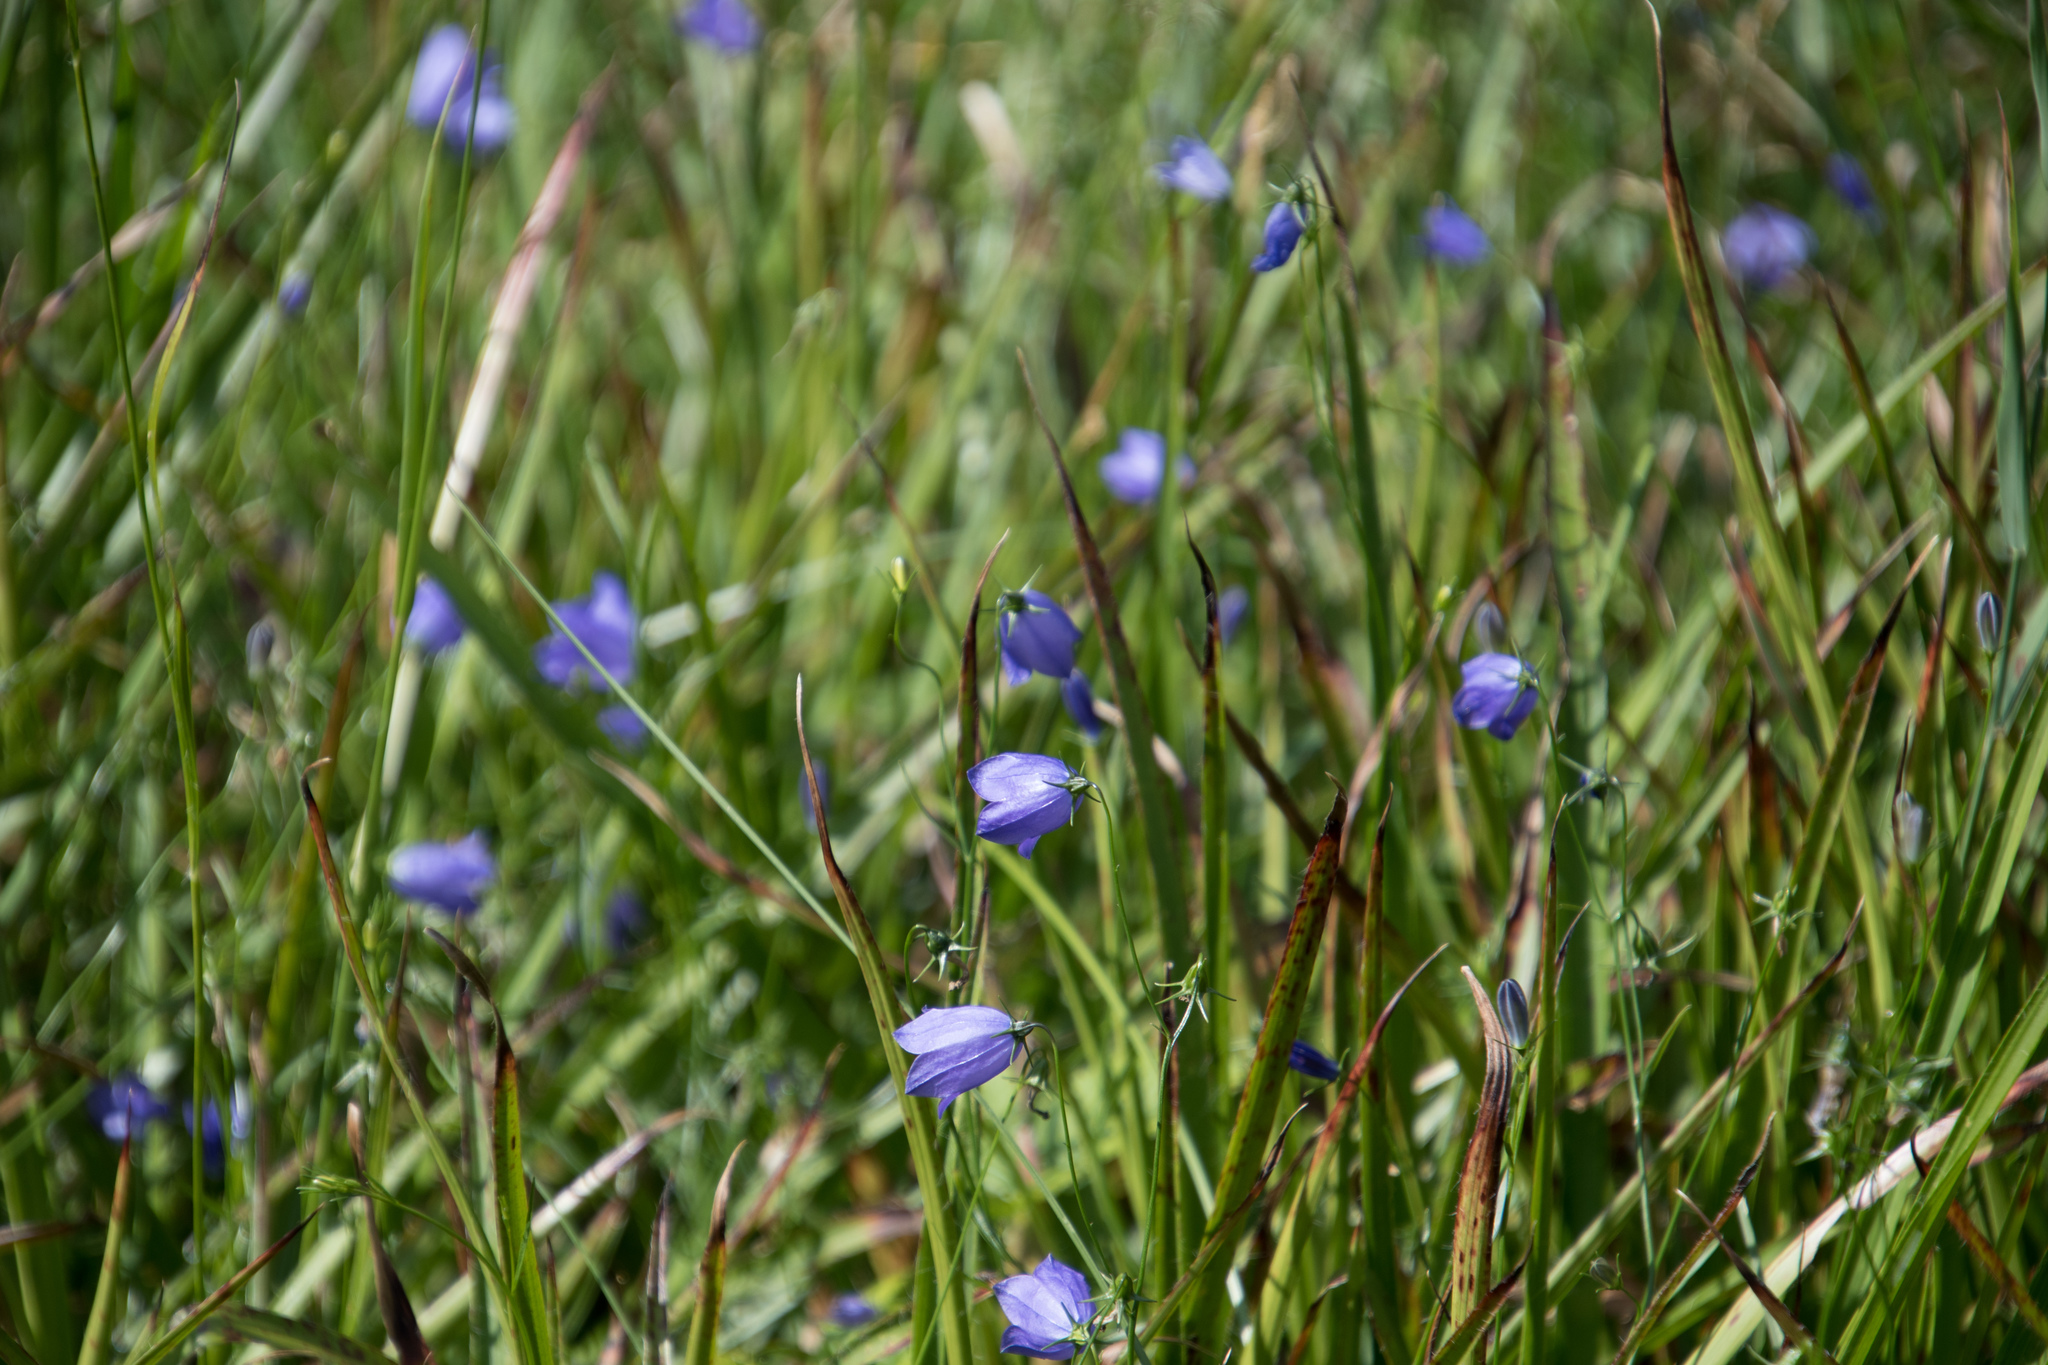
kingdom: Plantae
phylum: Tracheophyta
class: Magnoliopsida
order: Asterales
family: Campanulaceae
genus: Campanula
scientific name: Campanula rotundifolia
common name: Harebell
